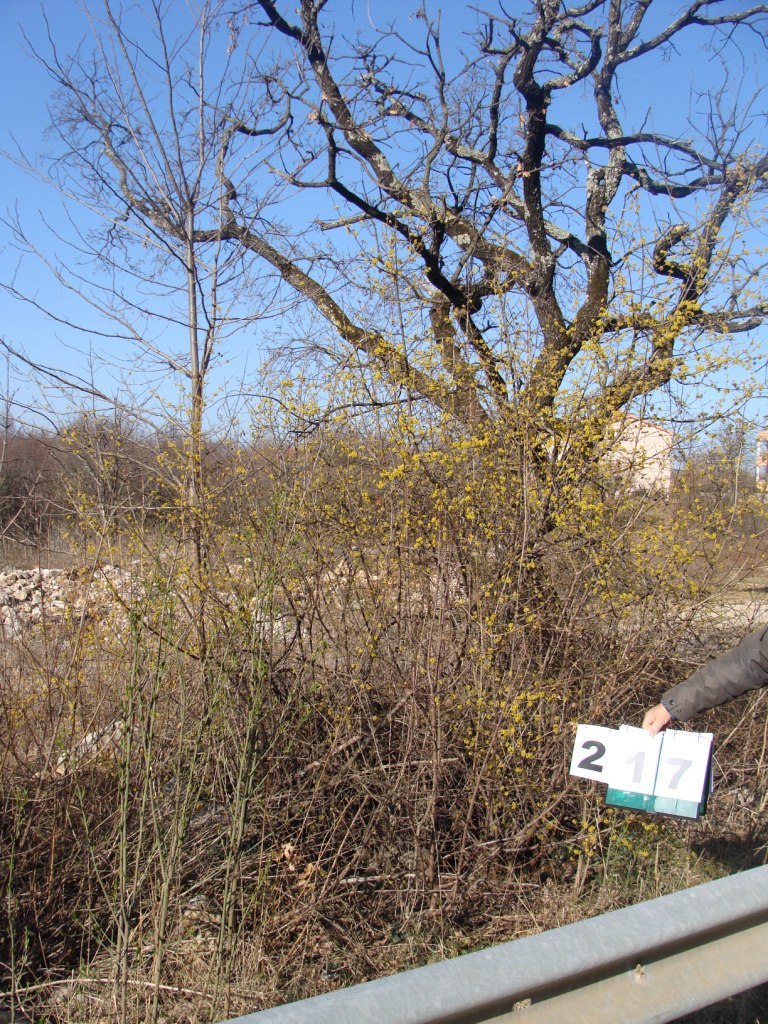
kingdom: Plantae
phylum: Tracheophyta
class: Magnoliopsida
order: Cornales
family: Cornaceae
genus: Cornus
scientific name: Cornus mas
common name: Cornelian-cherry
